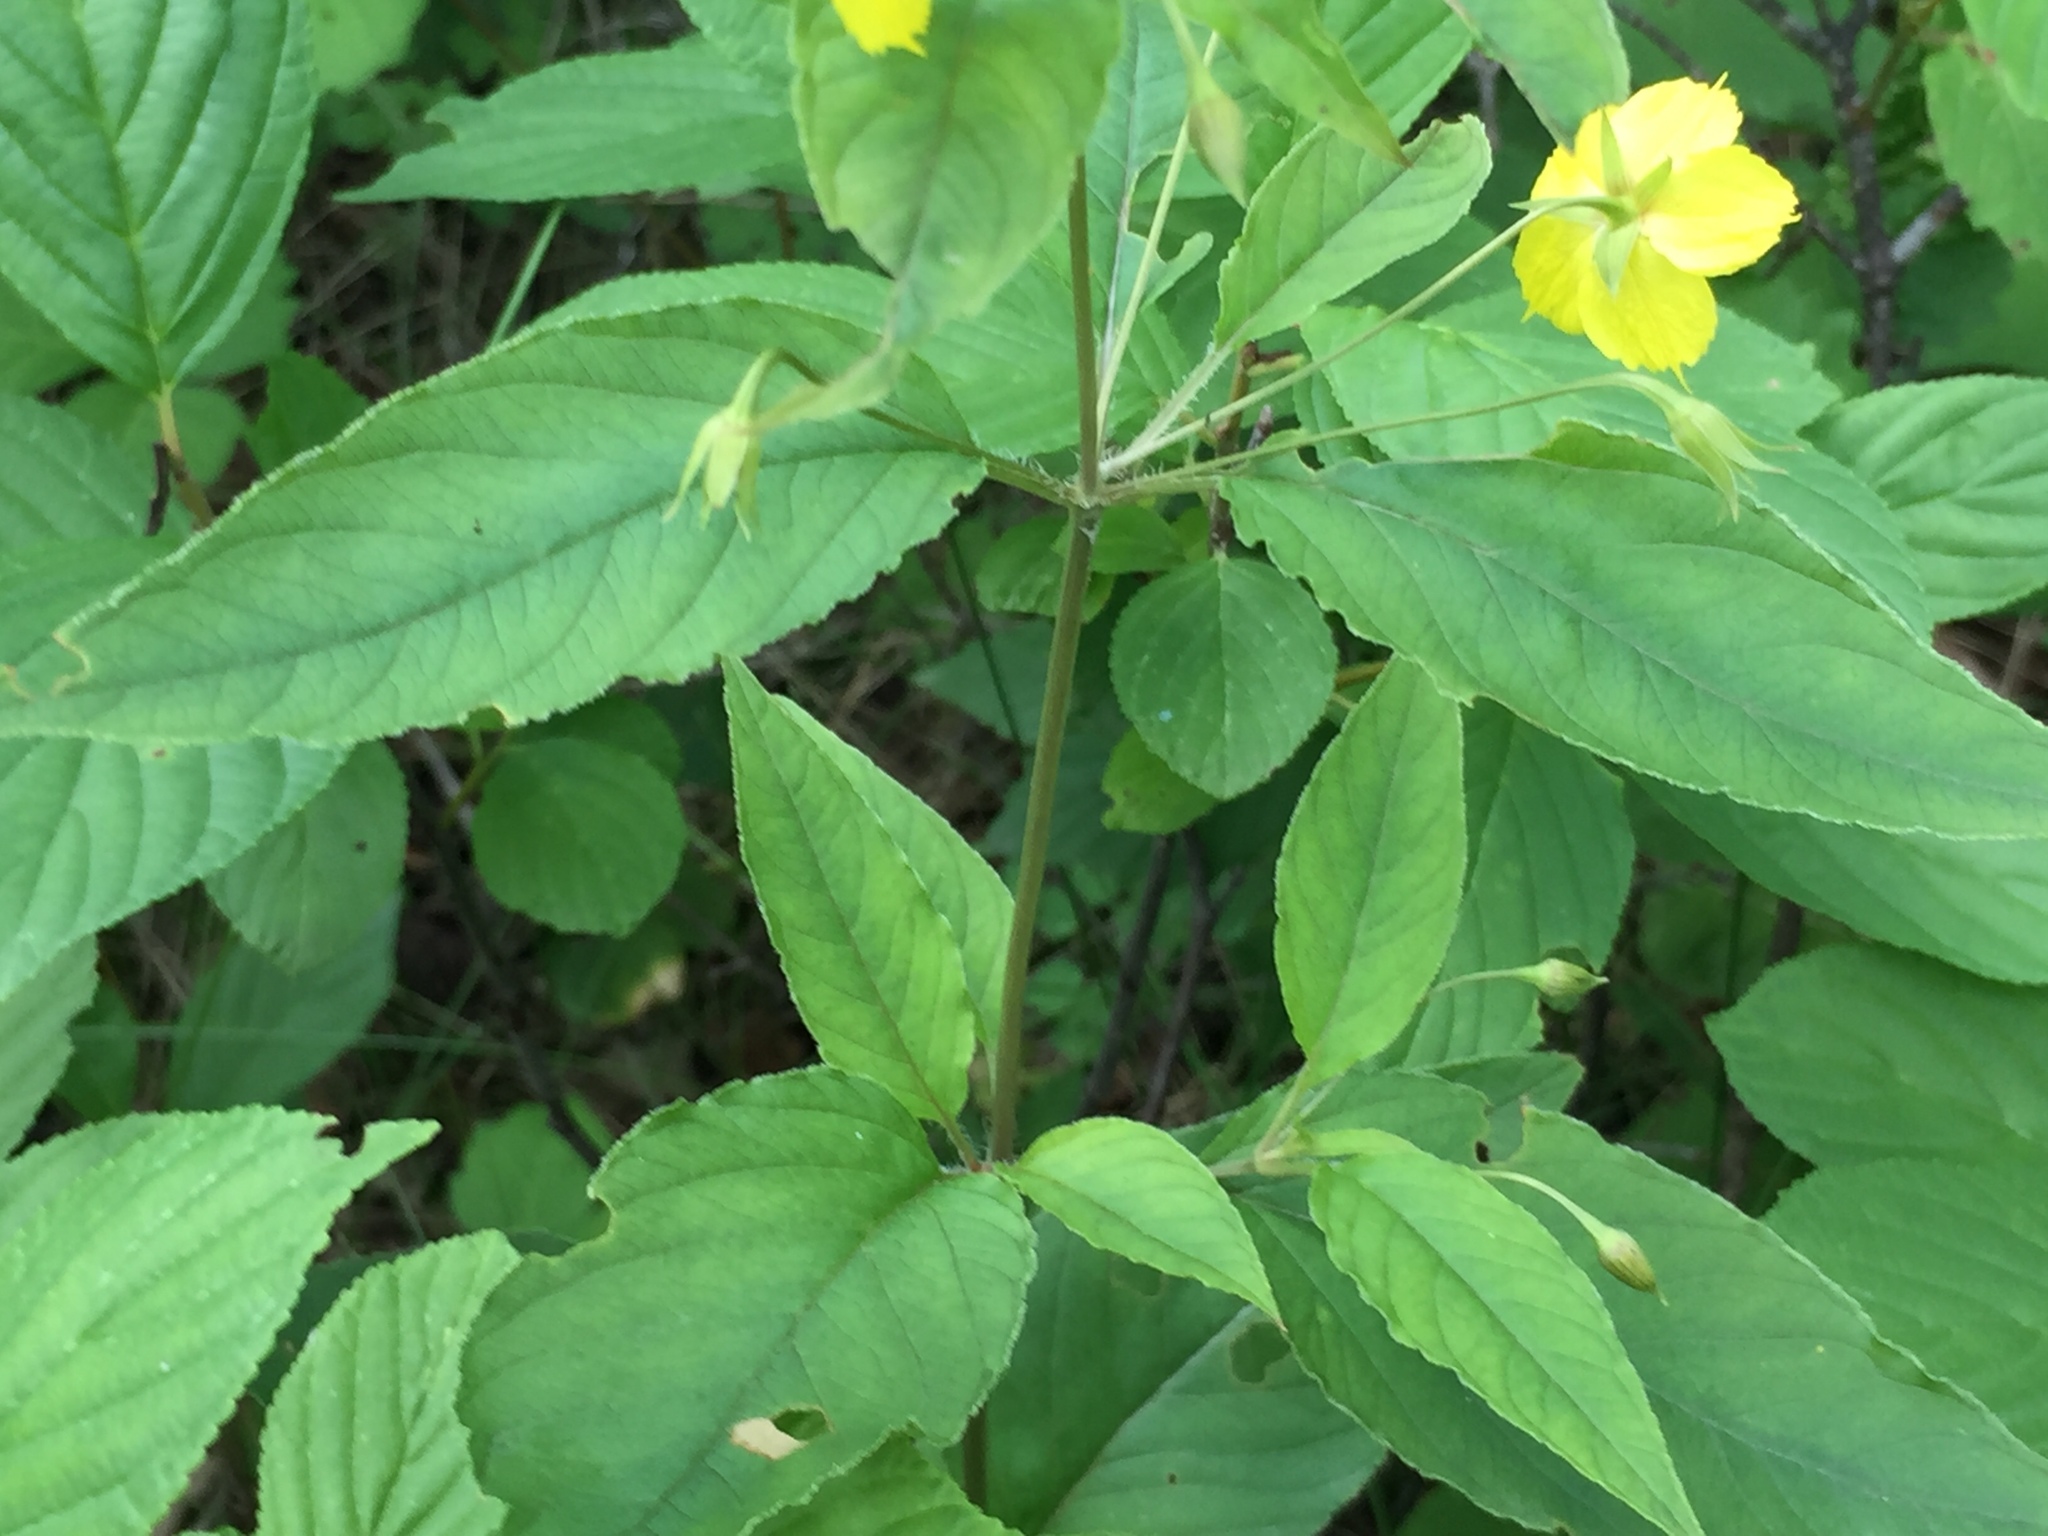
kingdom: Plantae
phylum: Tracheophyta
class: Magnoliopsida
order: Ericales
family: Primulaceae
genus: Lysimachia
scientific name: Lysimachia ciliata
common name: Fringed loosestrife
